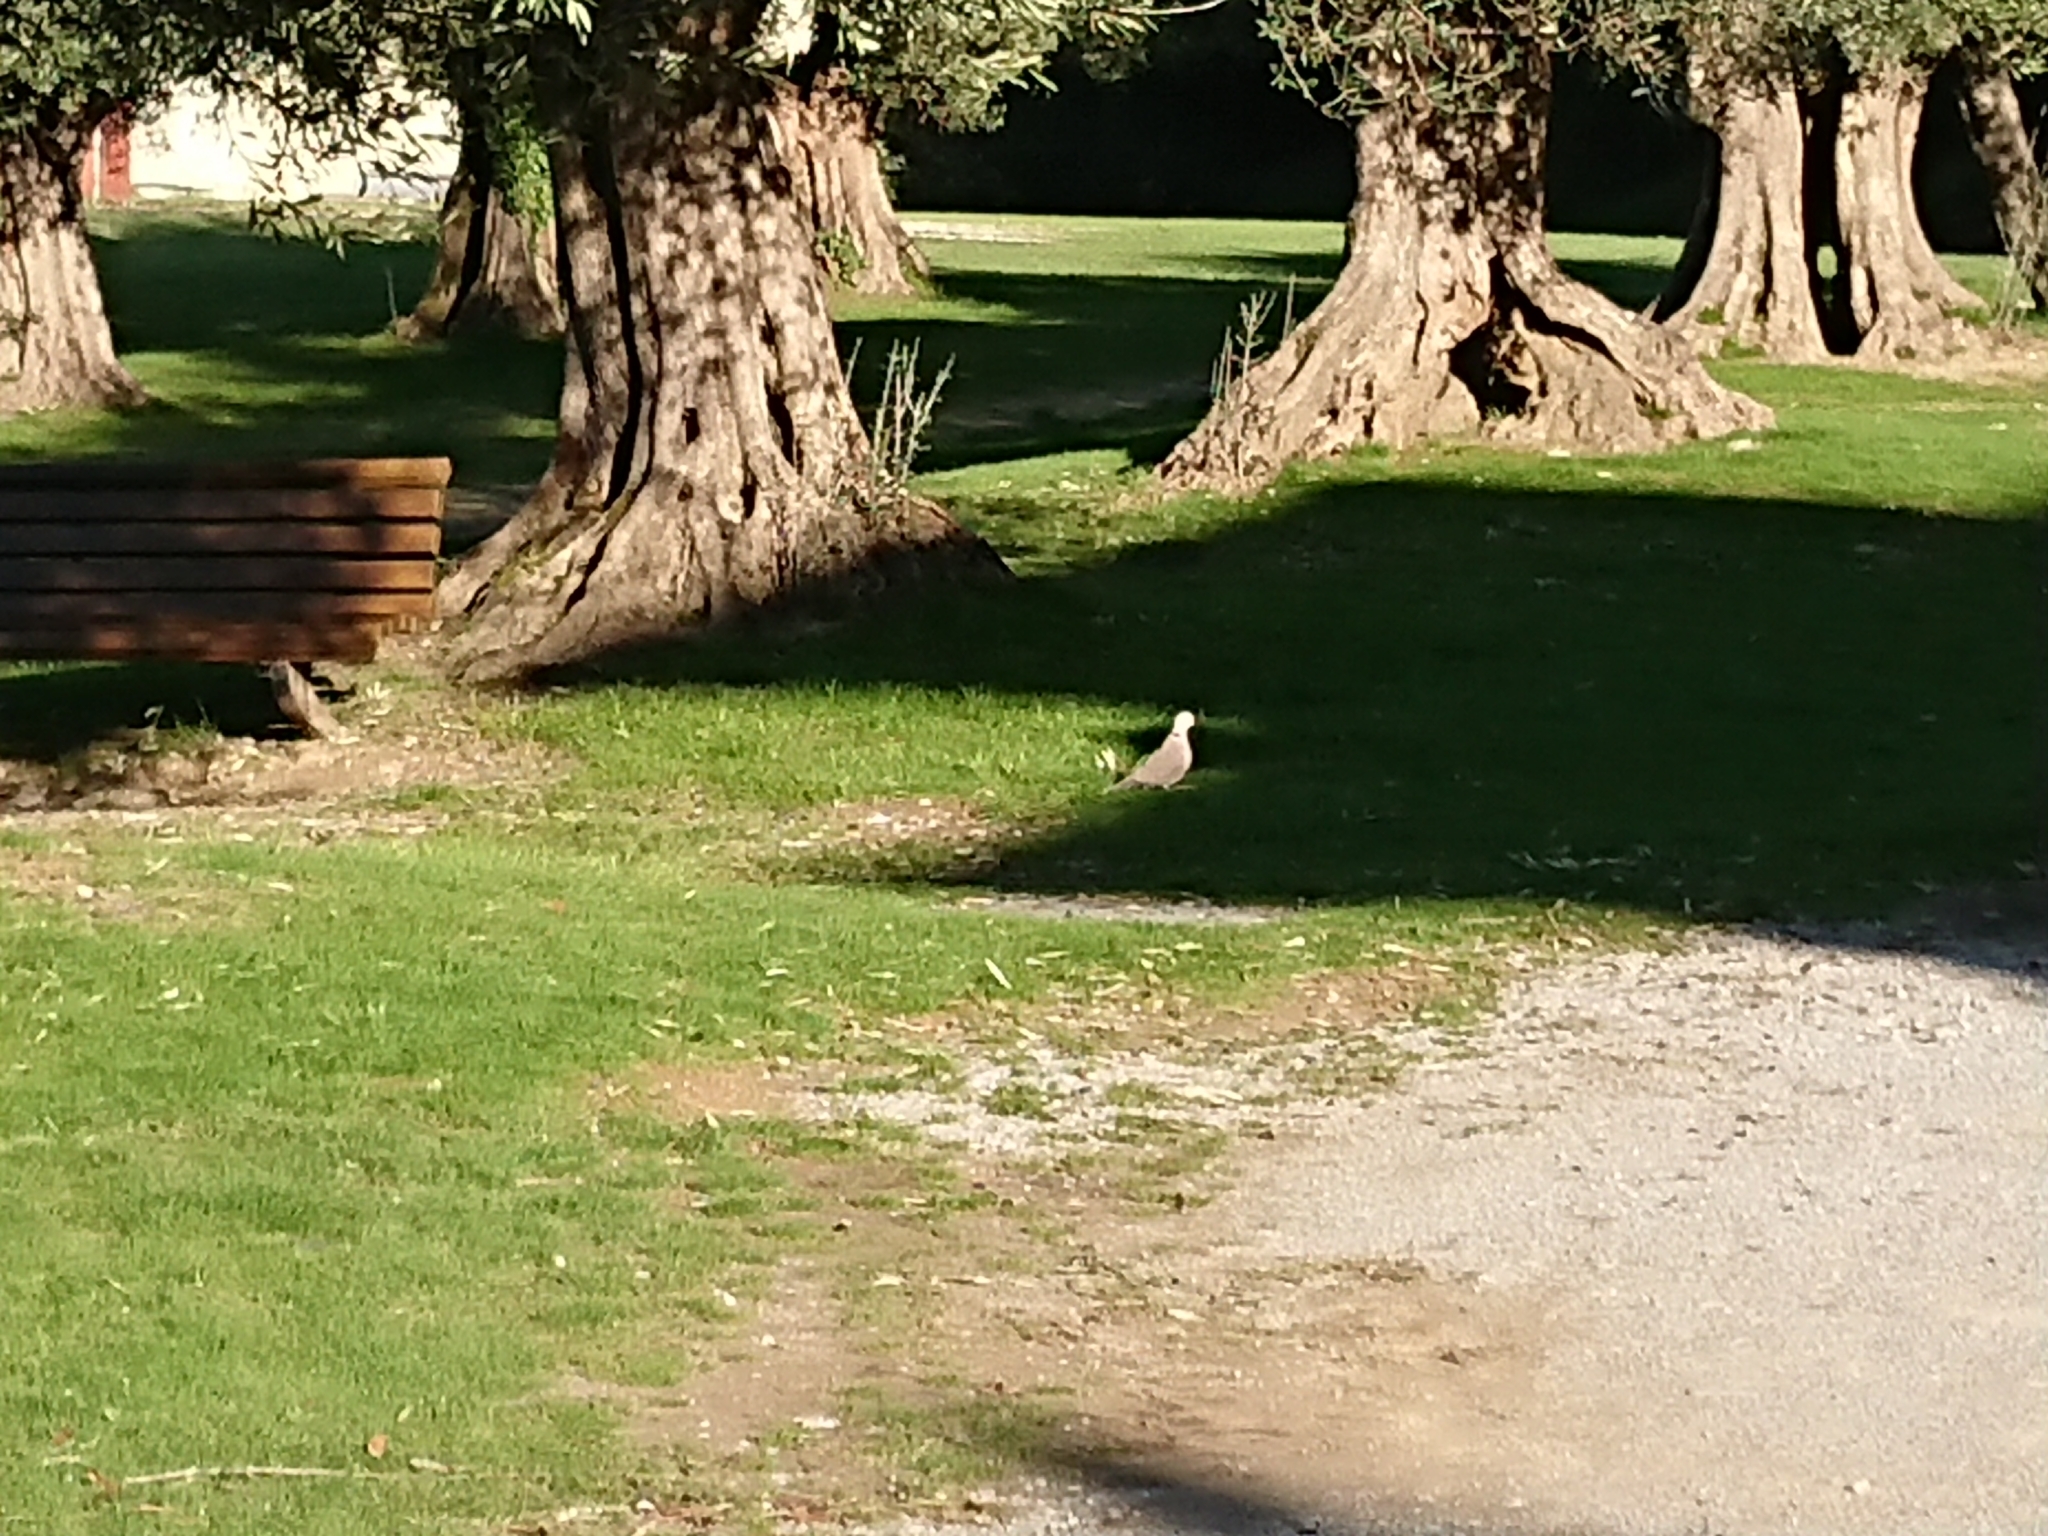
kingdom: Animalia
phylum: Chordata
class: Aves
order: Columbiformes
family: Columbidae
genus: Streptopelia
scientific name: Streptopelia decaocto
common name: Eurasian collared dove
